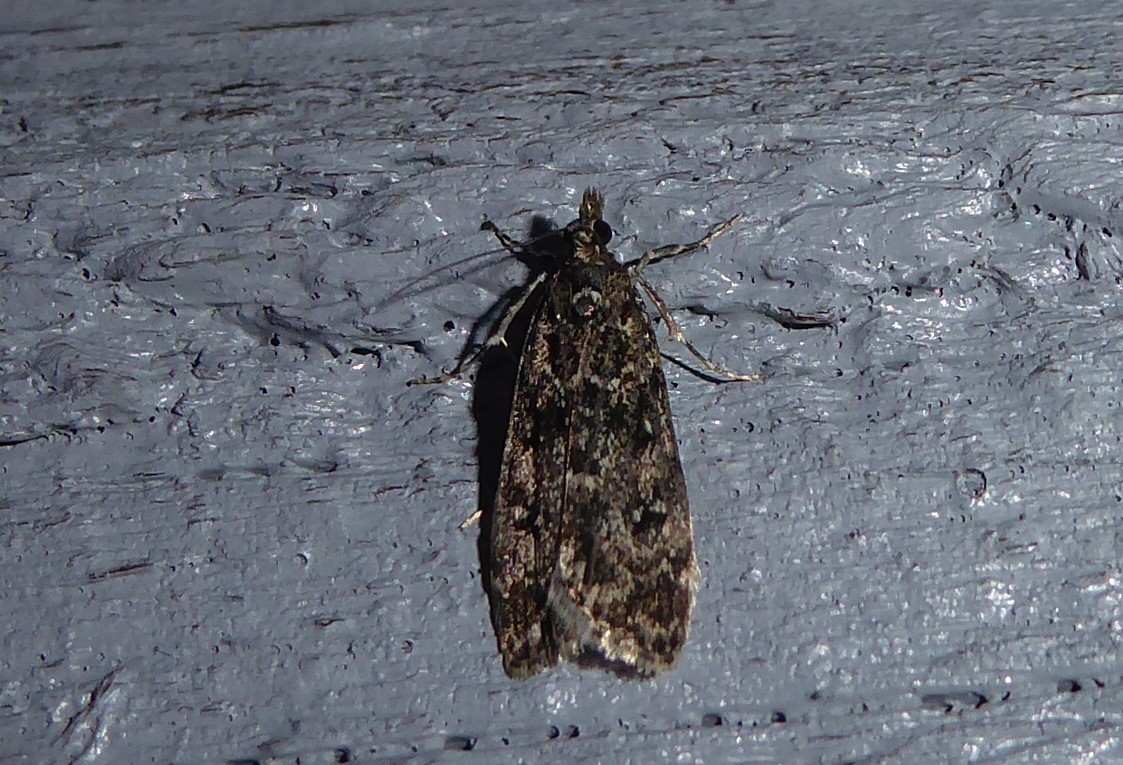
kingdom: Animalia
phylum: Arthropoda
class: Insecta
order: Lepidoptera
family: Crambidae
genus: Eudonia
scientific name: Eudonia philerga
